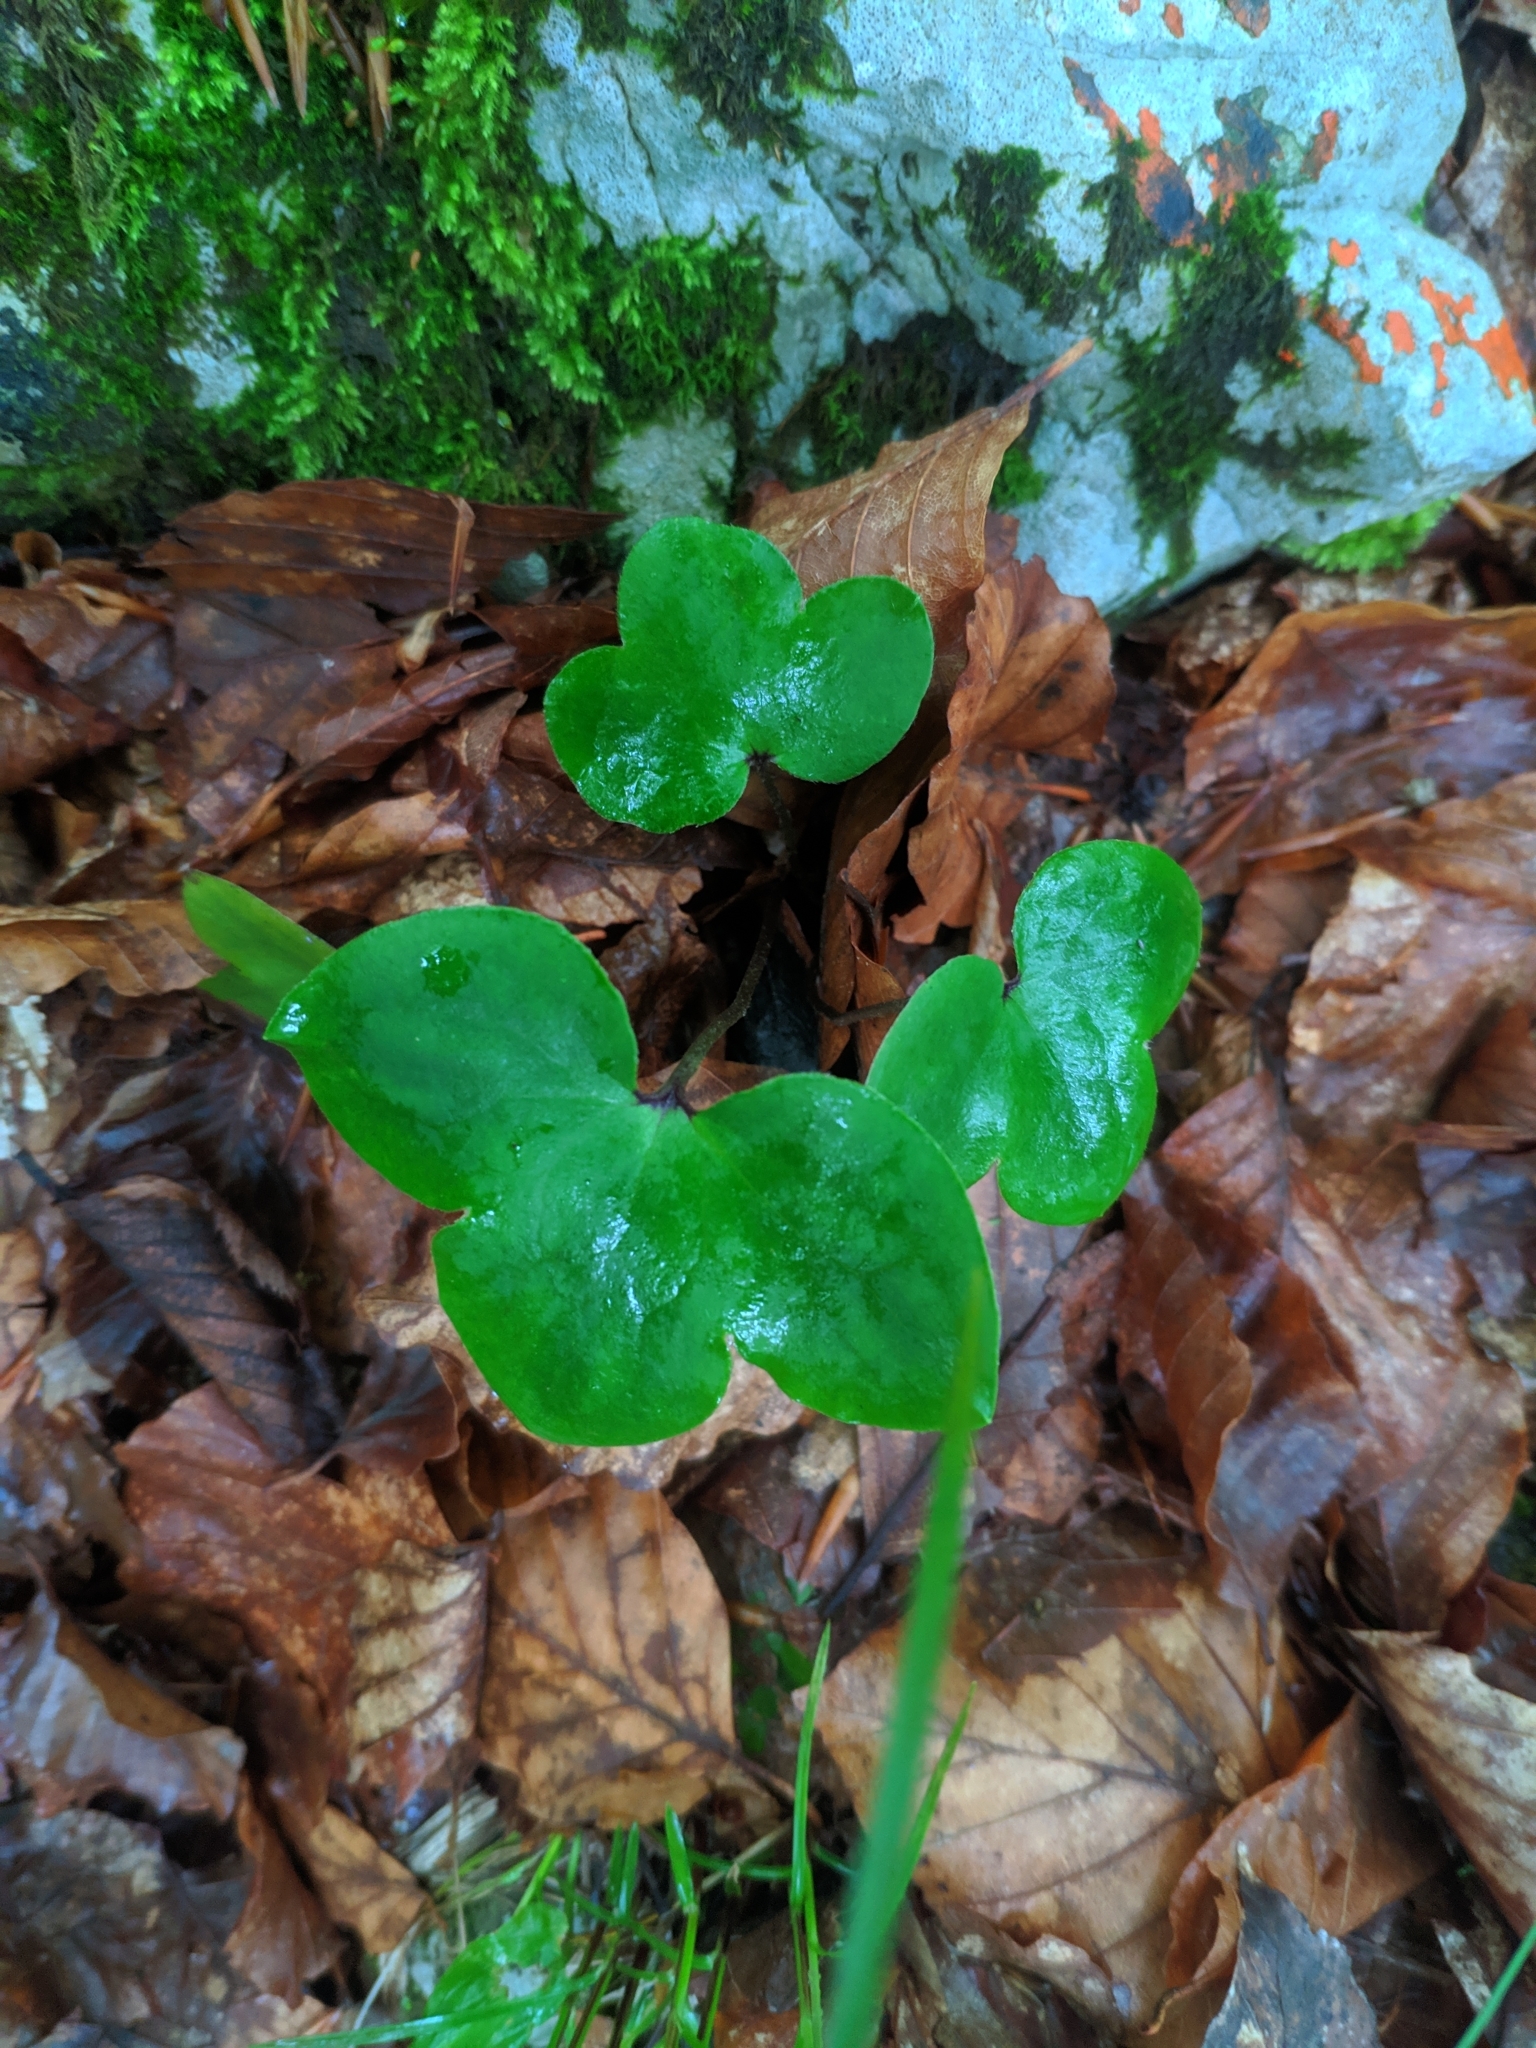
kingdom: Plantae
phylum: Tracheophyta
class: Magnoliopsida
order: Ranunculales
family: Ranunculaceae
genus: Hepatica
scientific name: Hepatica nobilis
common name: Liverleaf
